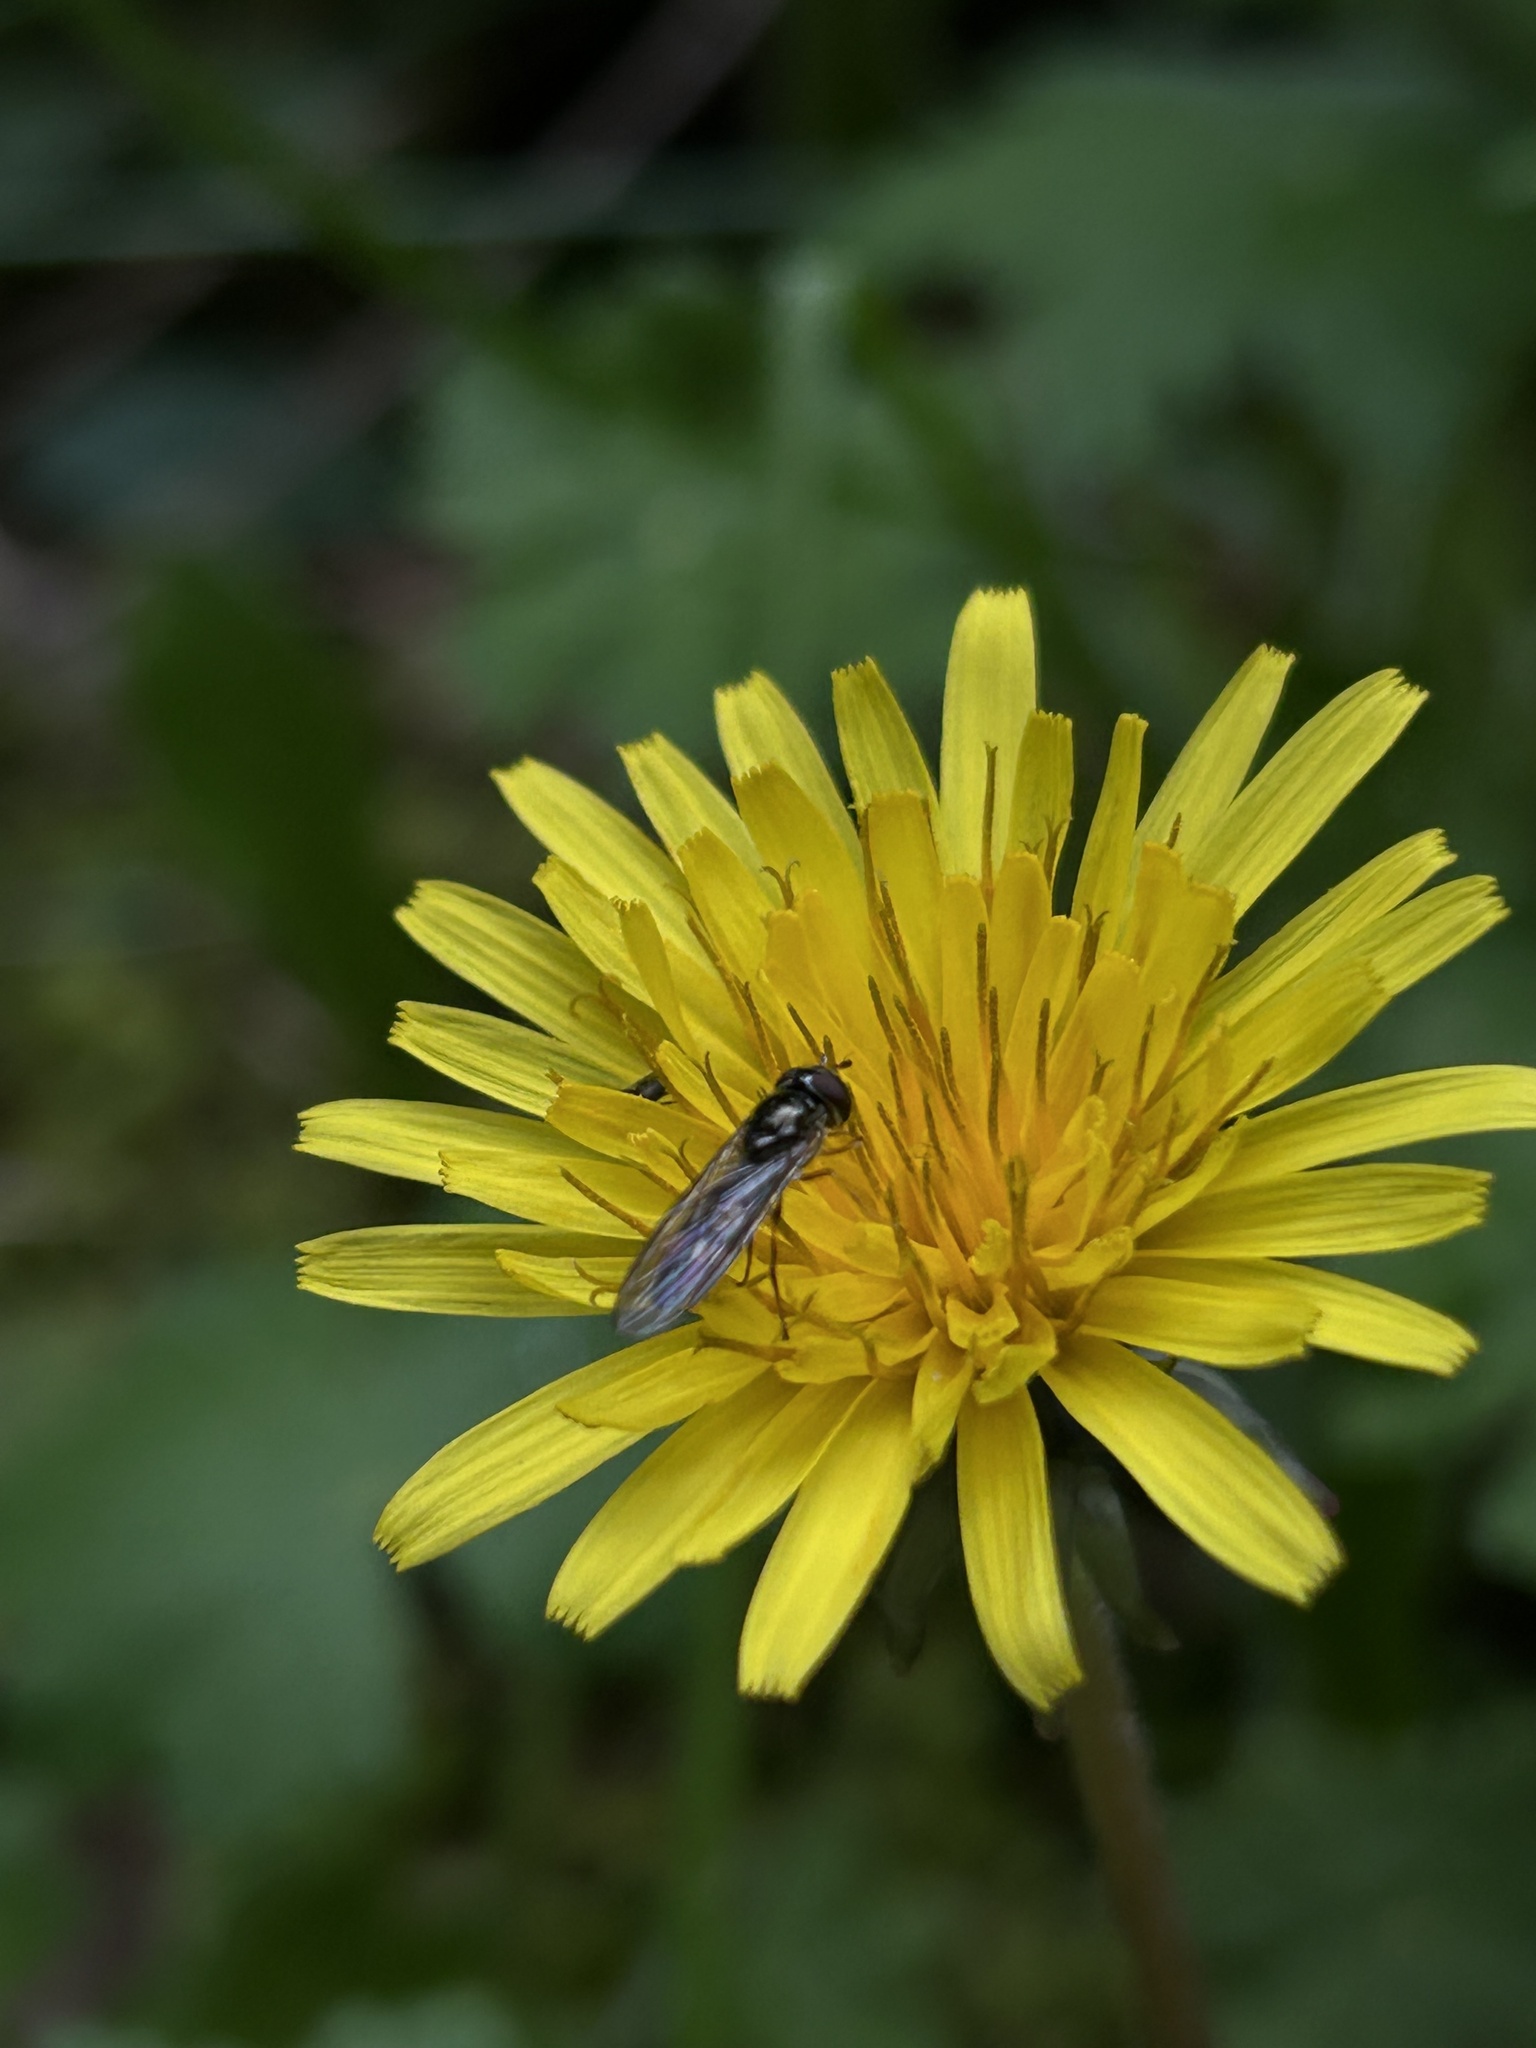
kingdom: Animalia
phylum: Arthropoda
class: Insecta
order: Diptera
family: Syrphidae
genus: Melanostoma
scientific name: Melanostoma mellina
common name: Hover fly
